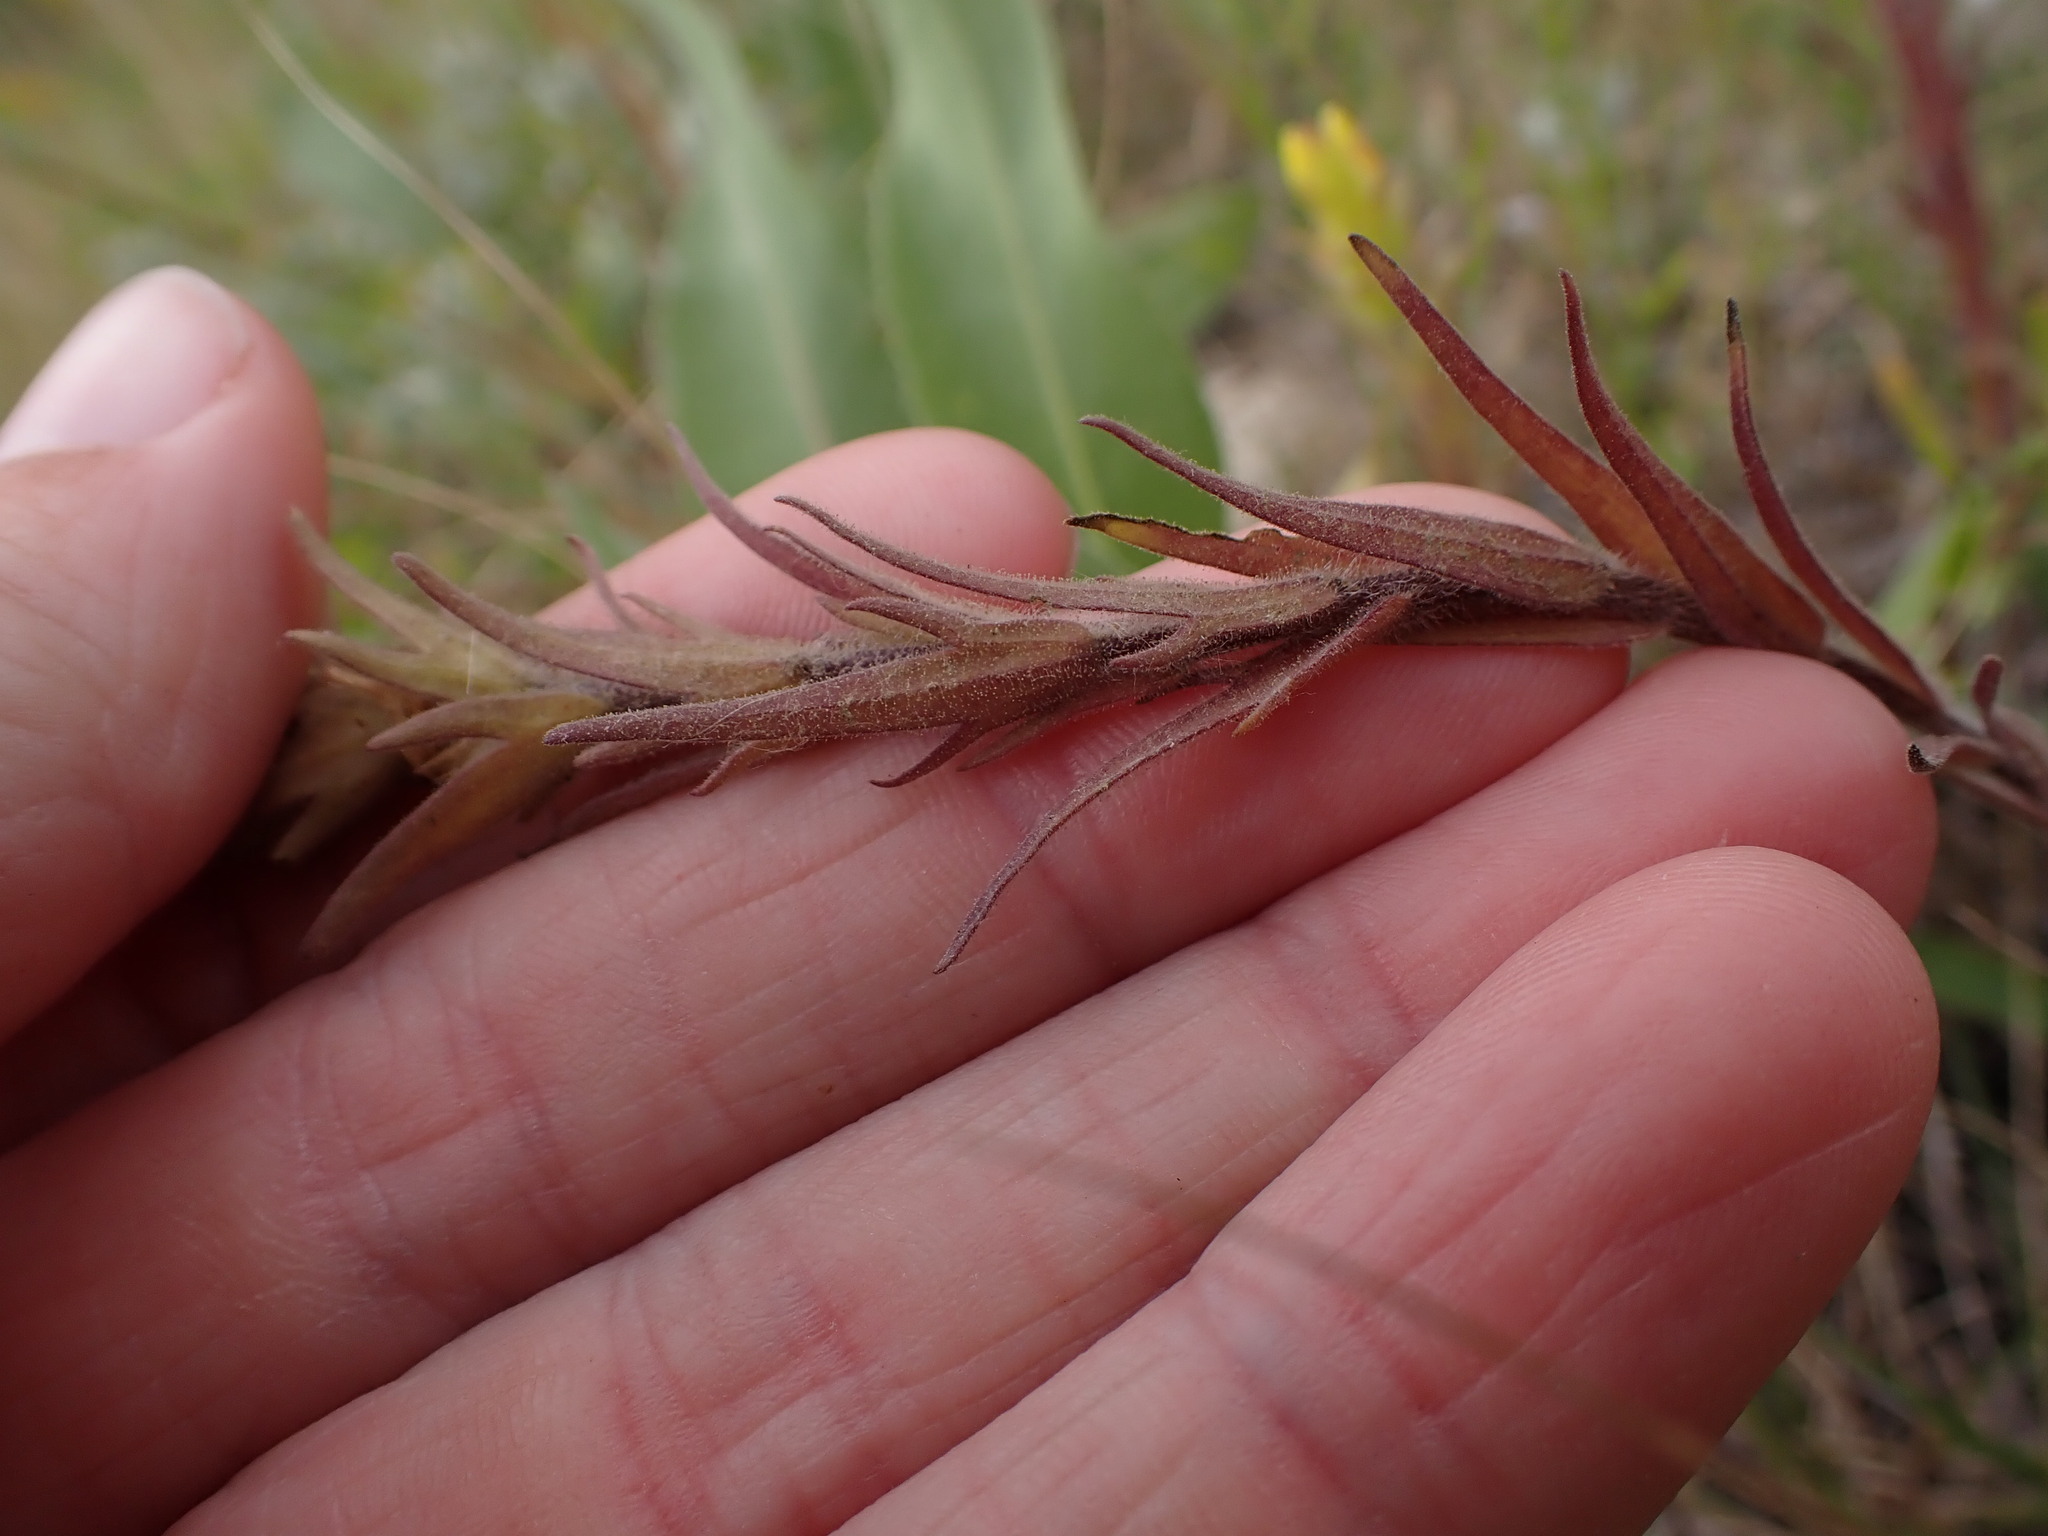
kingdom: Plantae
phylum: Tracheophyta
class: Magnoliopsida
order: Lamiales
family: Orobanchaceae
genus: Orthocarpus
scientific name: Orthocarpus luteus
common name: Golden-tongue owl's-clover
